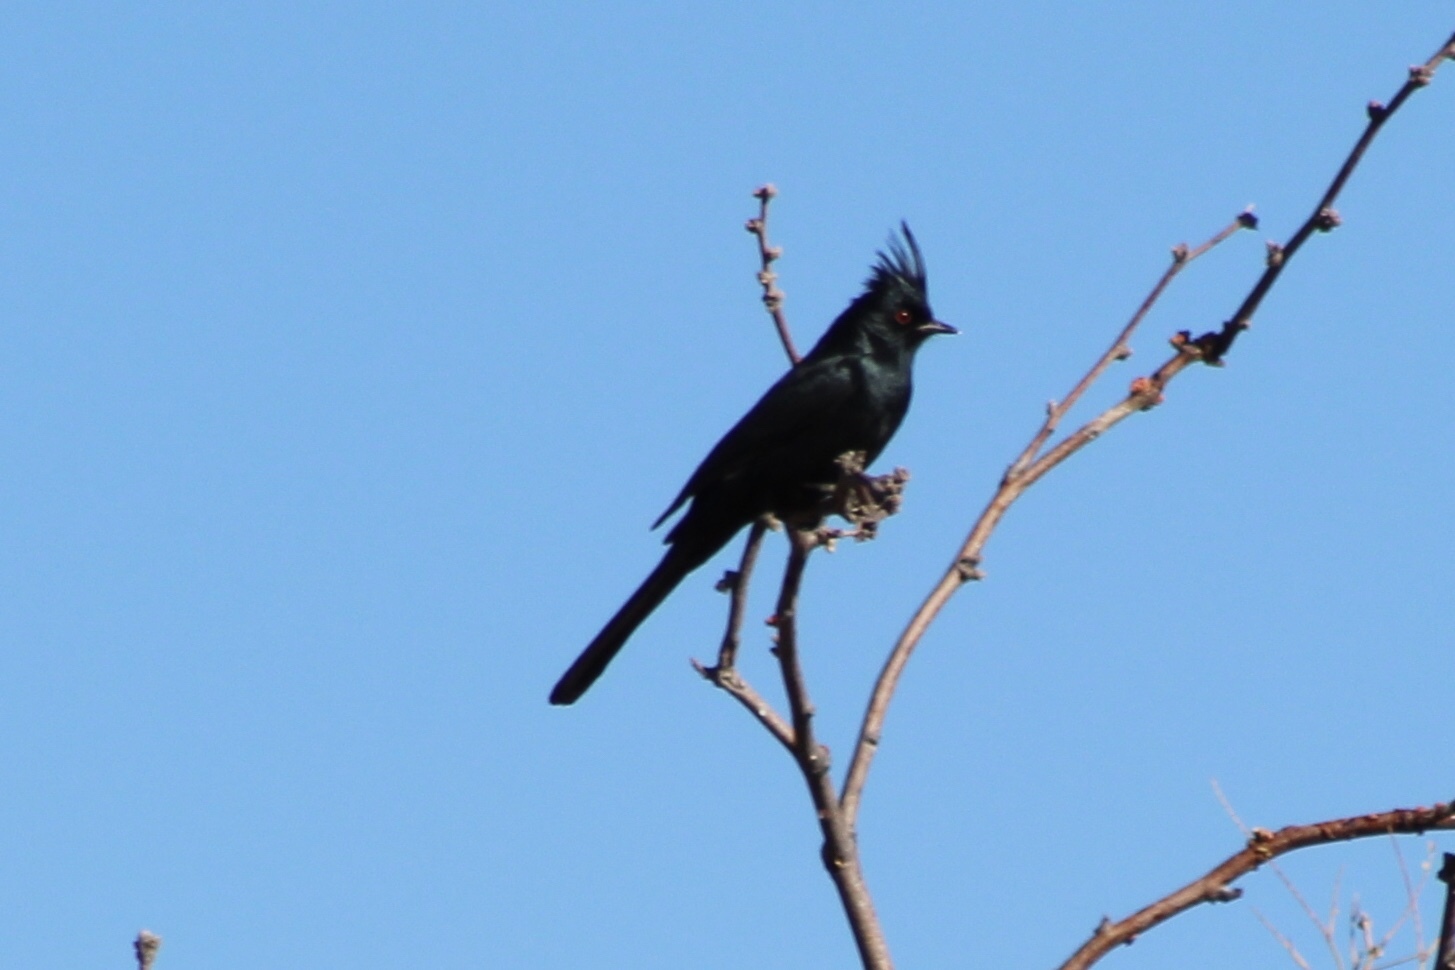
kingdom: Animalia
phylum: Chordata
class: Aves
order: Passeriformes
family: Ptilogonatidae
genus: Phainopepla
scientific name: Phainopepla nitens
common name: Phainopepla
